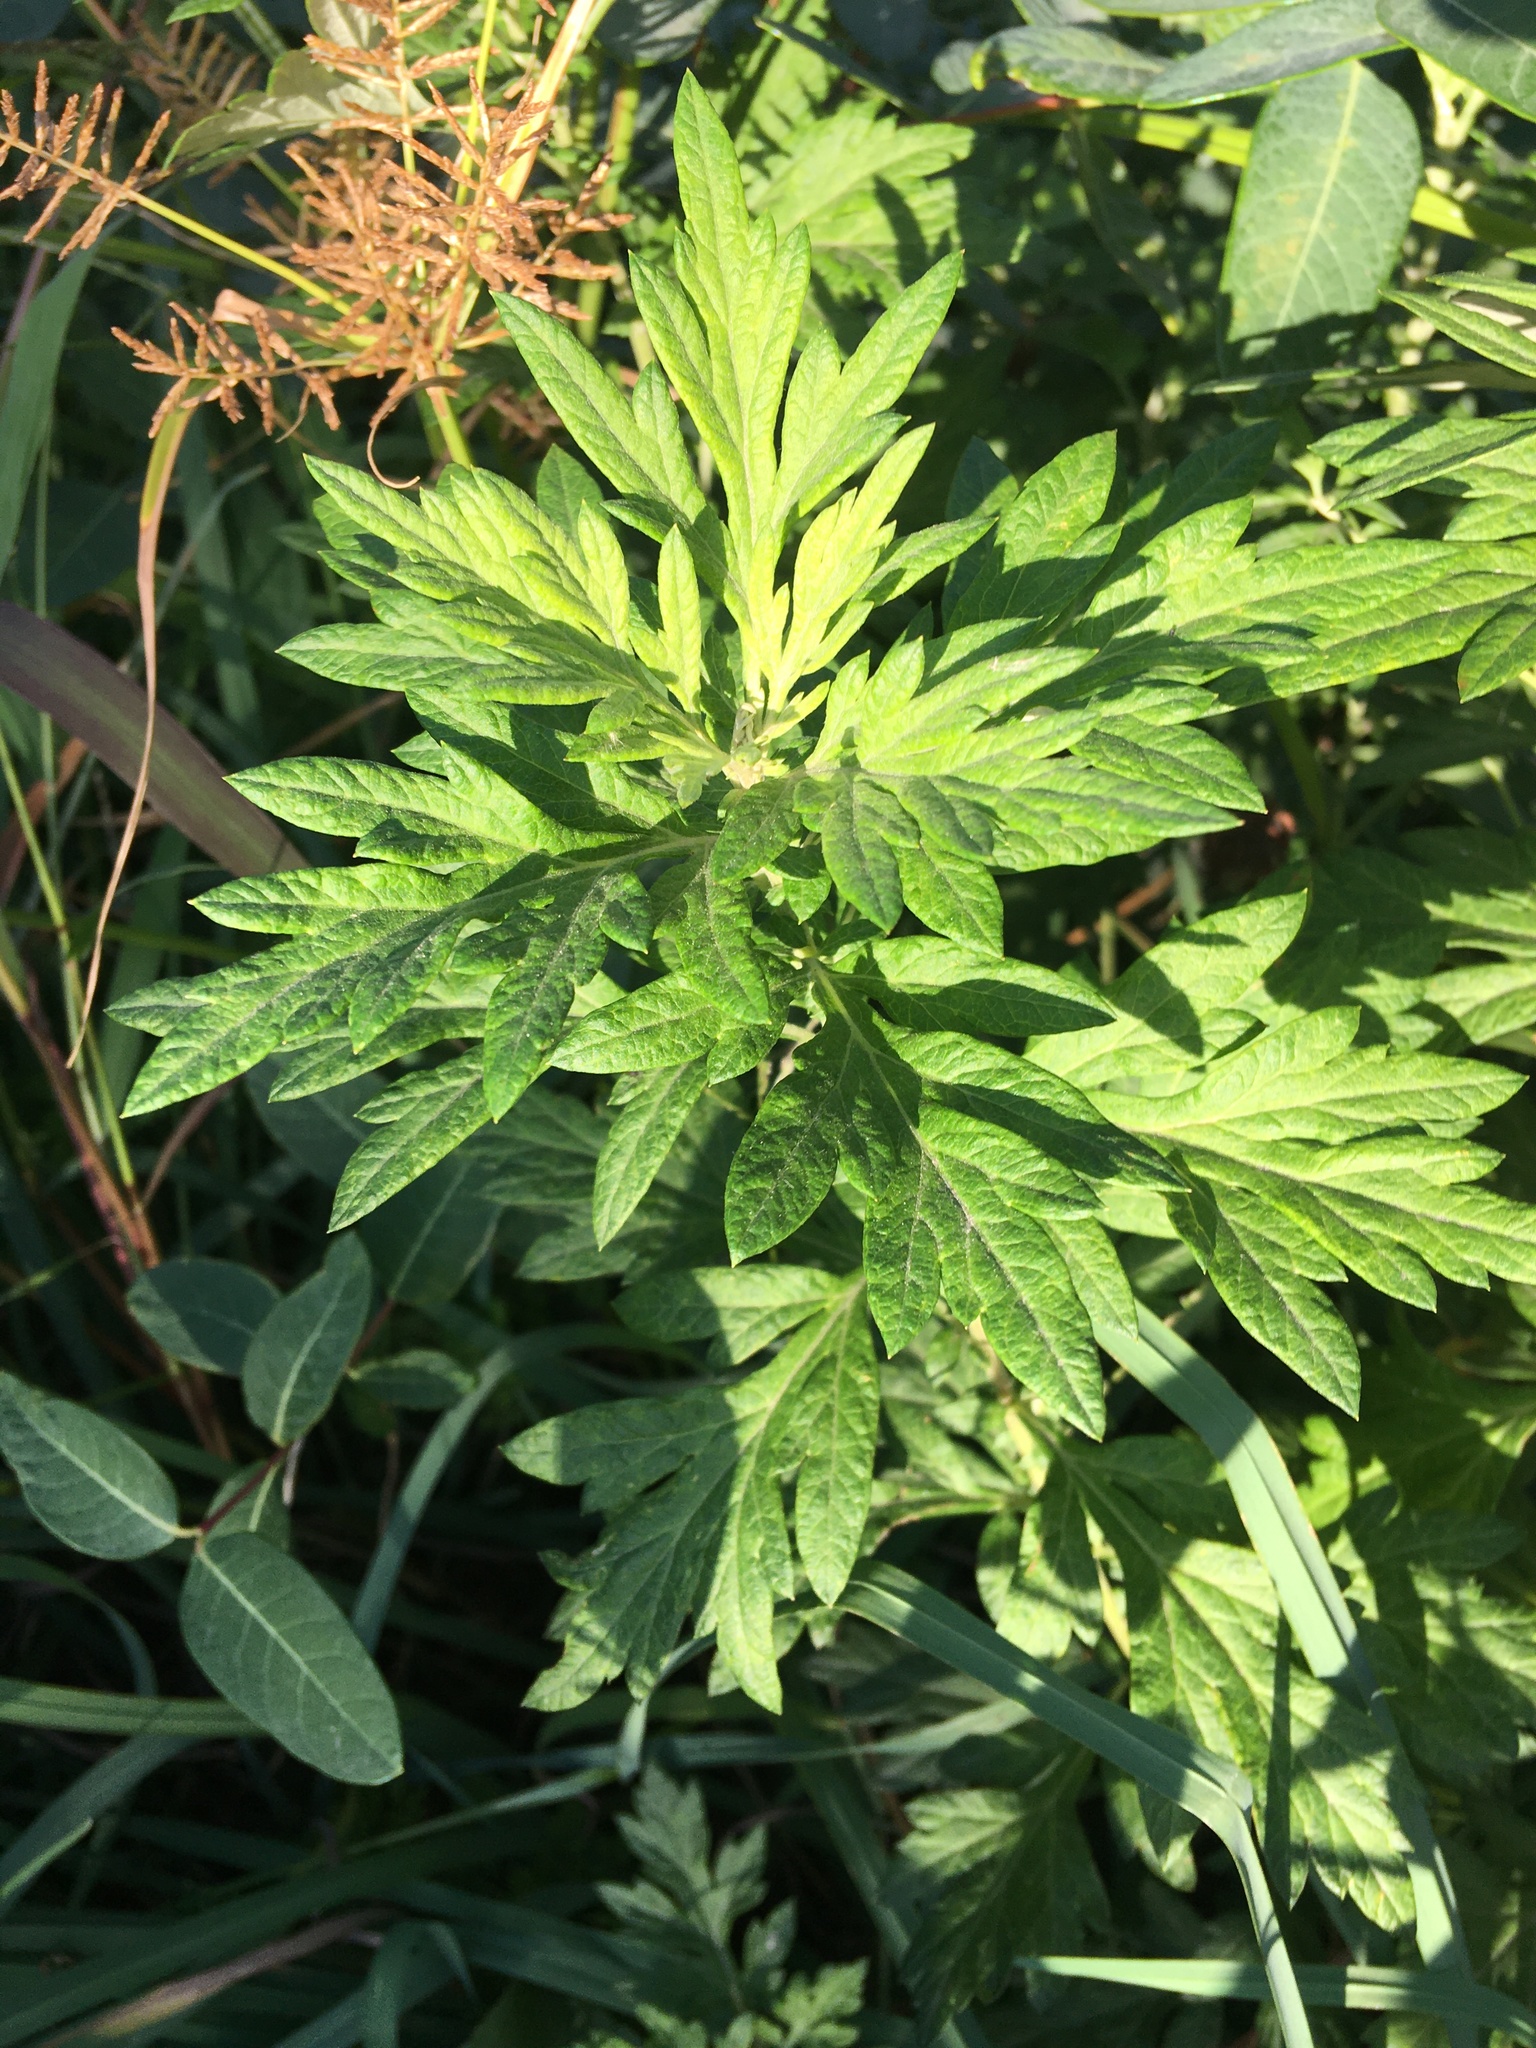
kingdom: Plantae
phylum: Tracheophyta
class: Magnoliopsida
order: Asterales
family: Asteraceae
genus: Artemisia
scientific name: Artemisia vulgaris
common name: Mugwort
